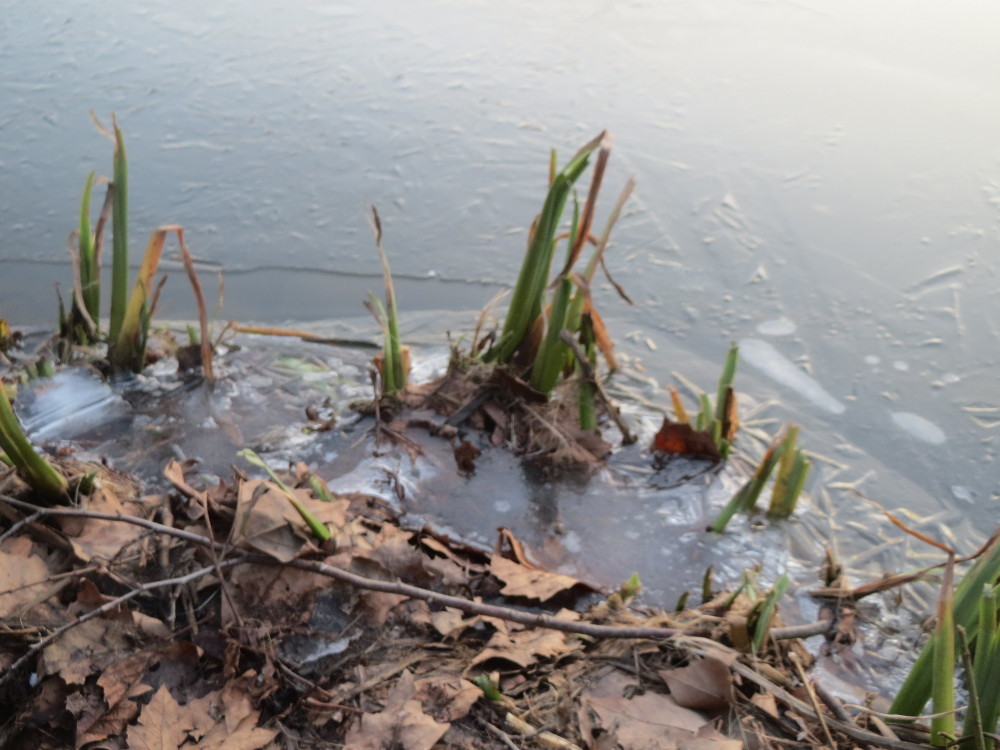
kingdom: Plantae
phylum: Tracheophyta
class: Liliopsida
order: Asparagales
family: Iridaceae
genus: Iris
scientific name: Iris pseudacorus
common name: Yellow flag
